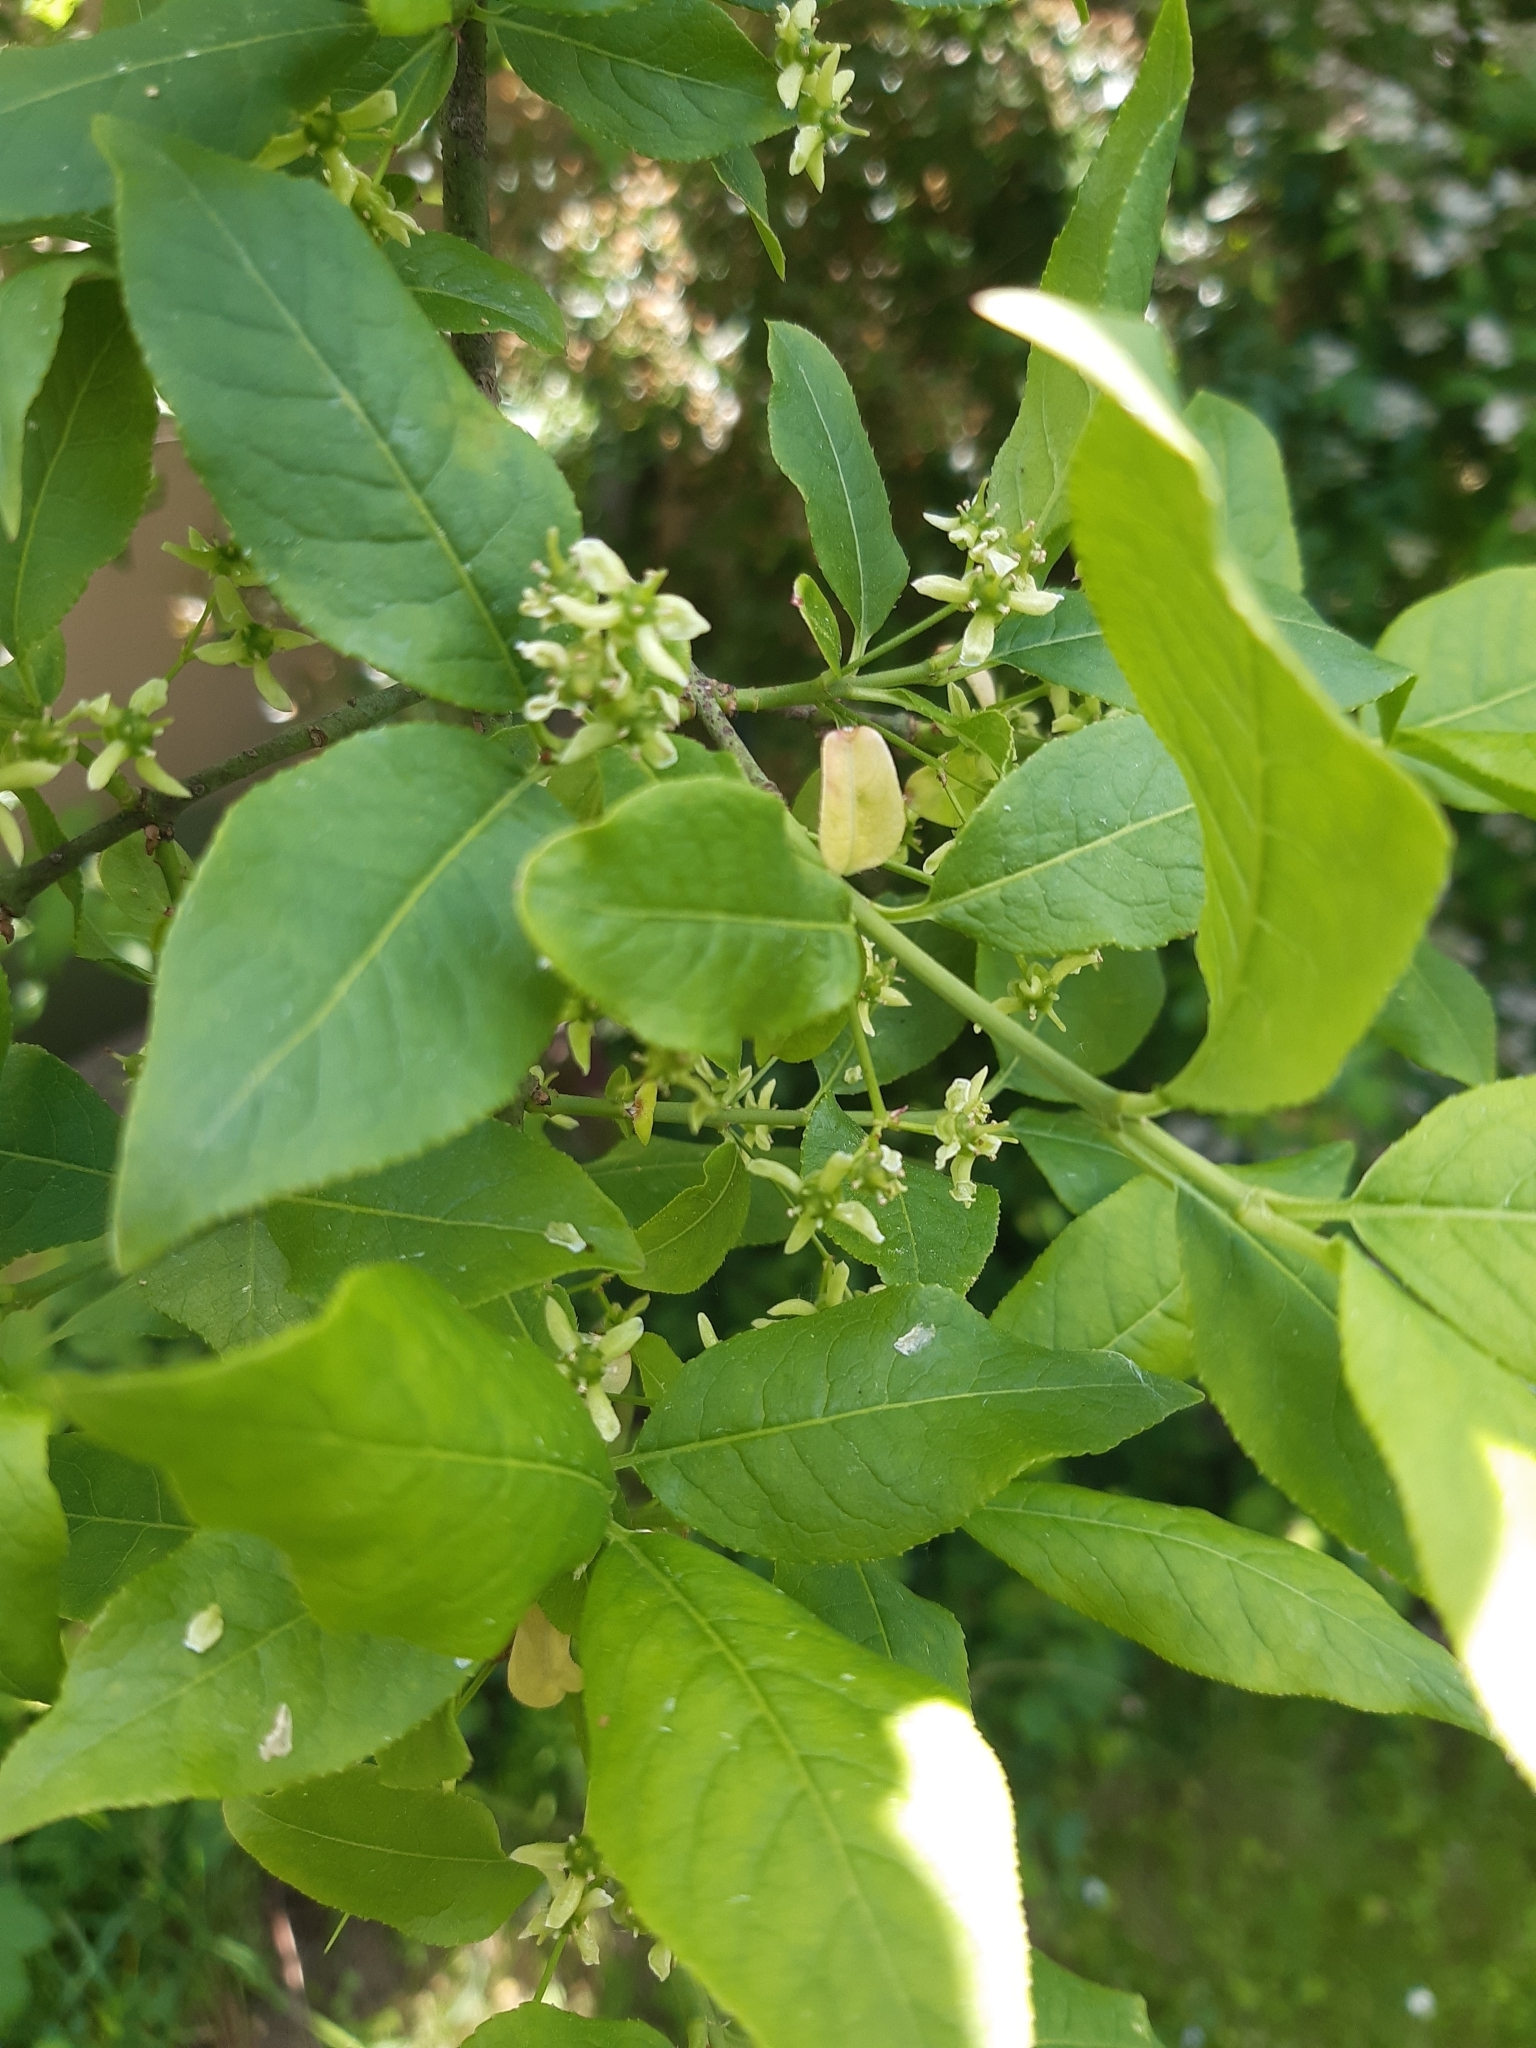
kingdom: Plantae
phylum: Tracheophyta
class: Magnoliopsida
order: Celastrales
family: Celastraceae
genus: Euonymus
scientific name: Euonymus europaeus
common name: Spindle
